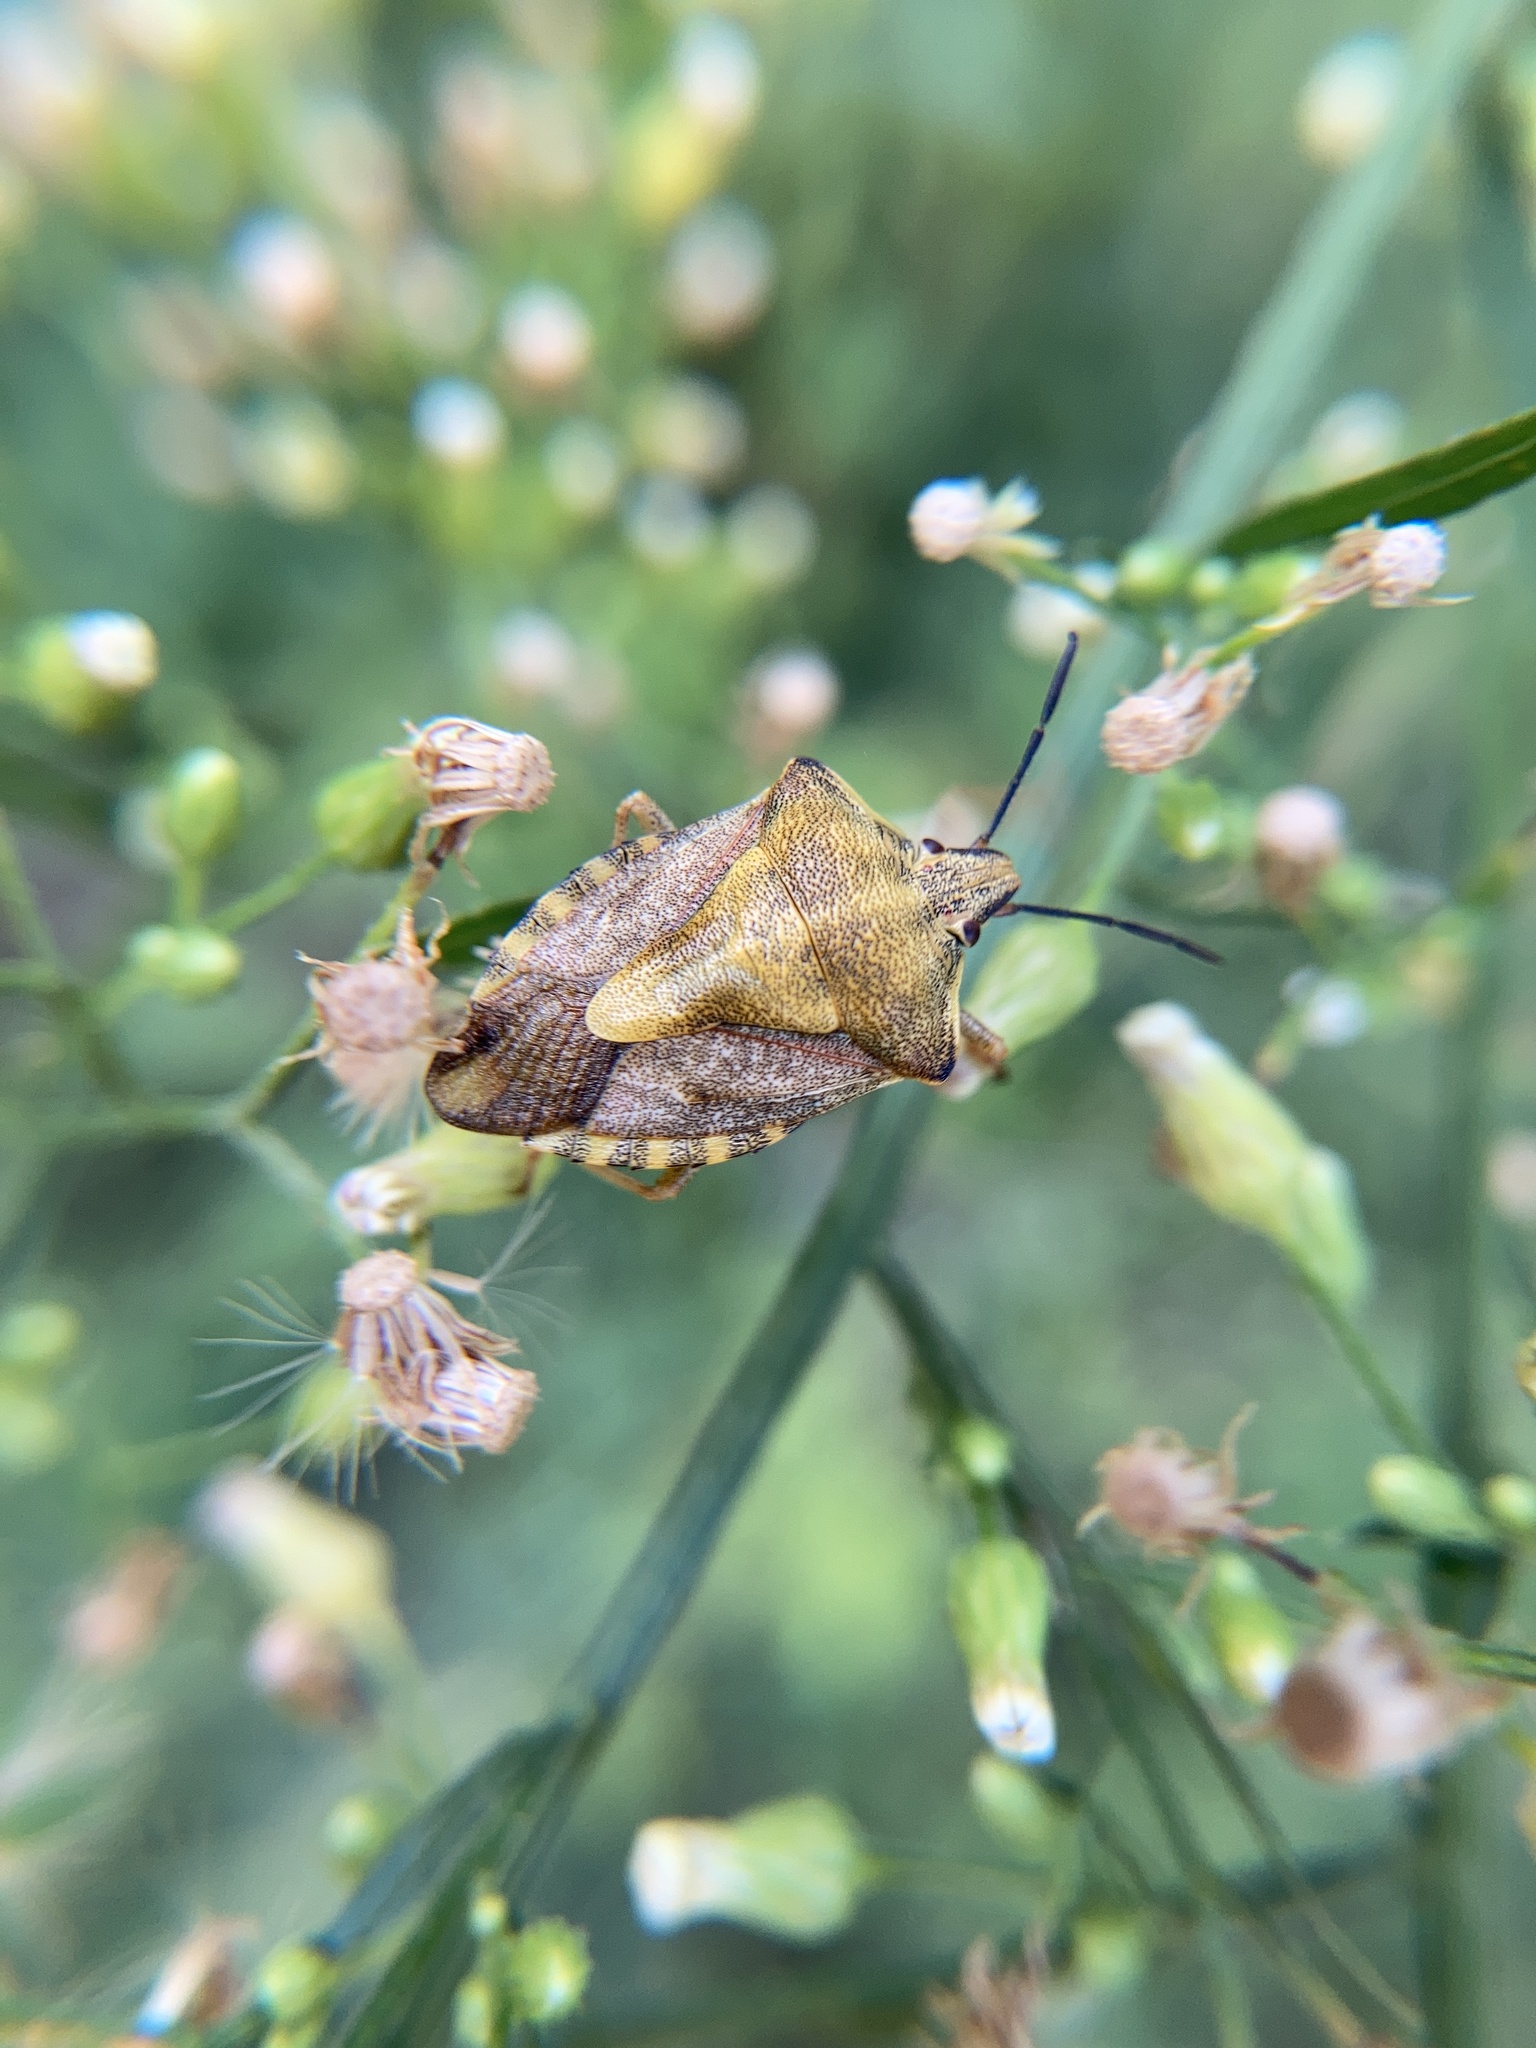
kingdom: Animalia
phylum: Arthropoda
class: Insecta
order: Hemiptera
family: Pentatomidae
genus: Carpocoris
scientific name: Carpocoris purpureipennis
